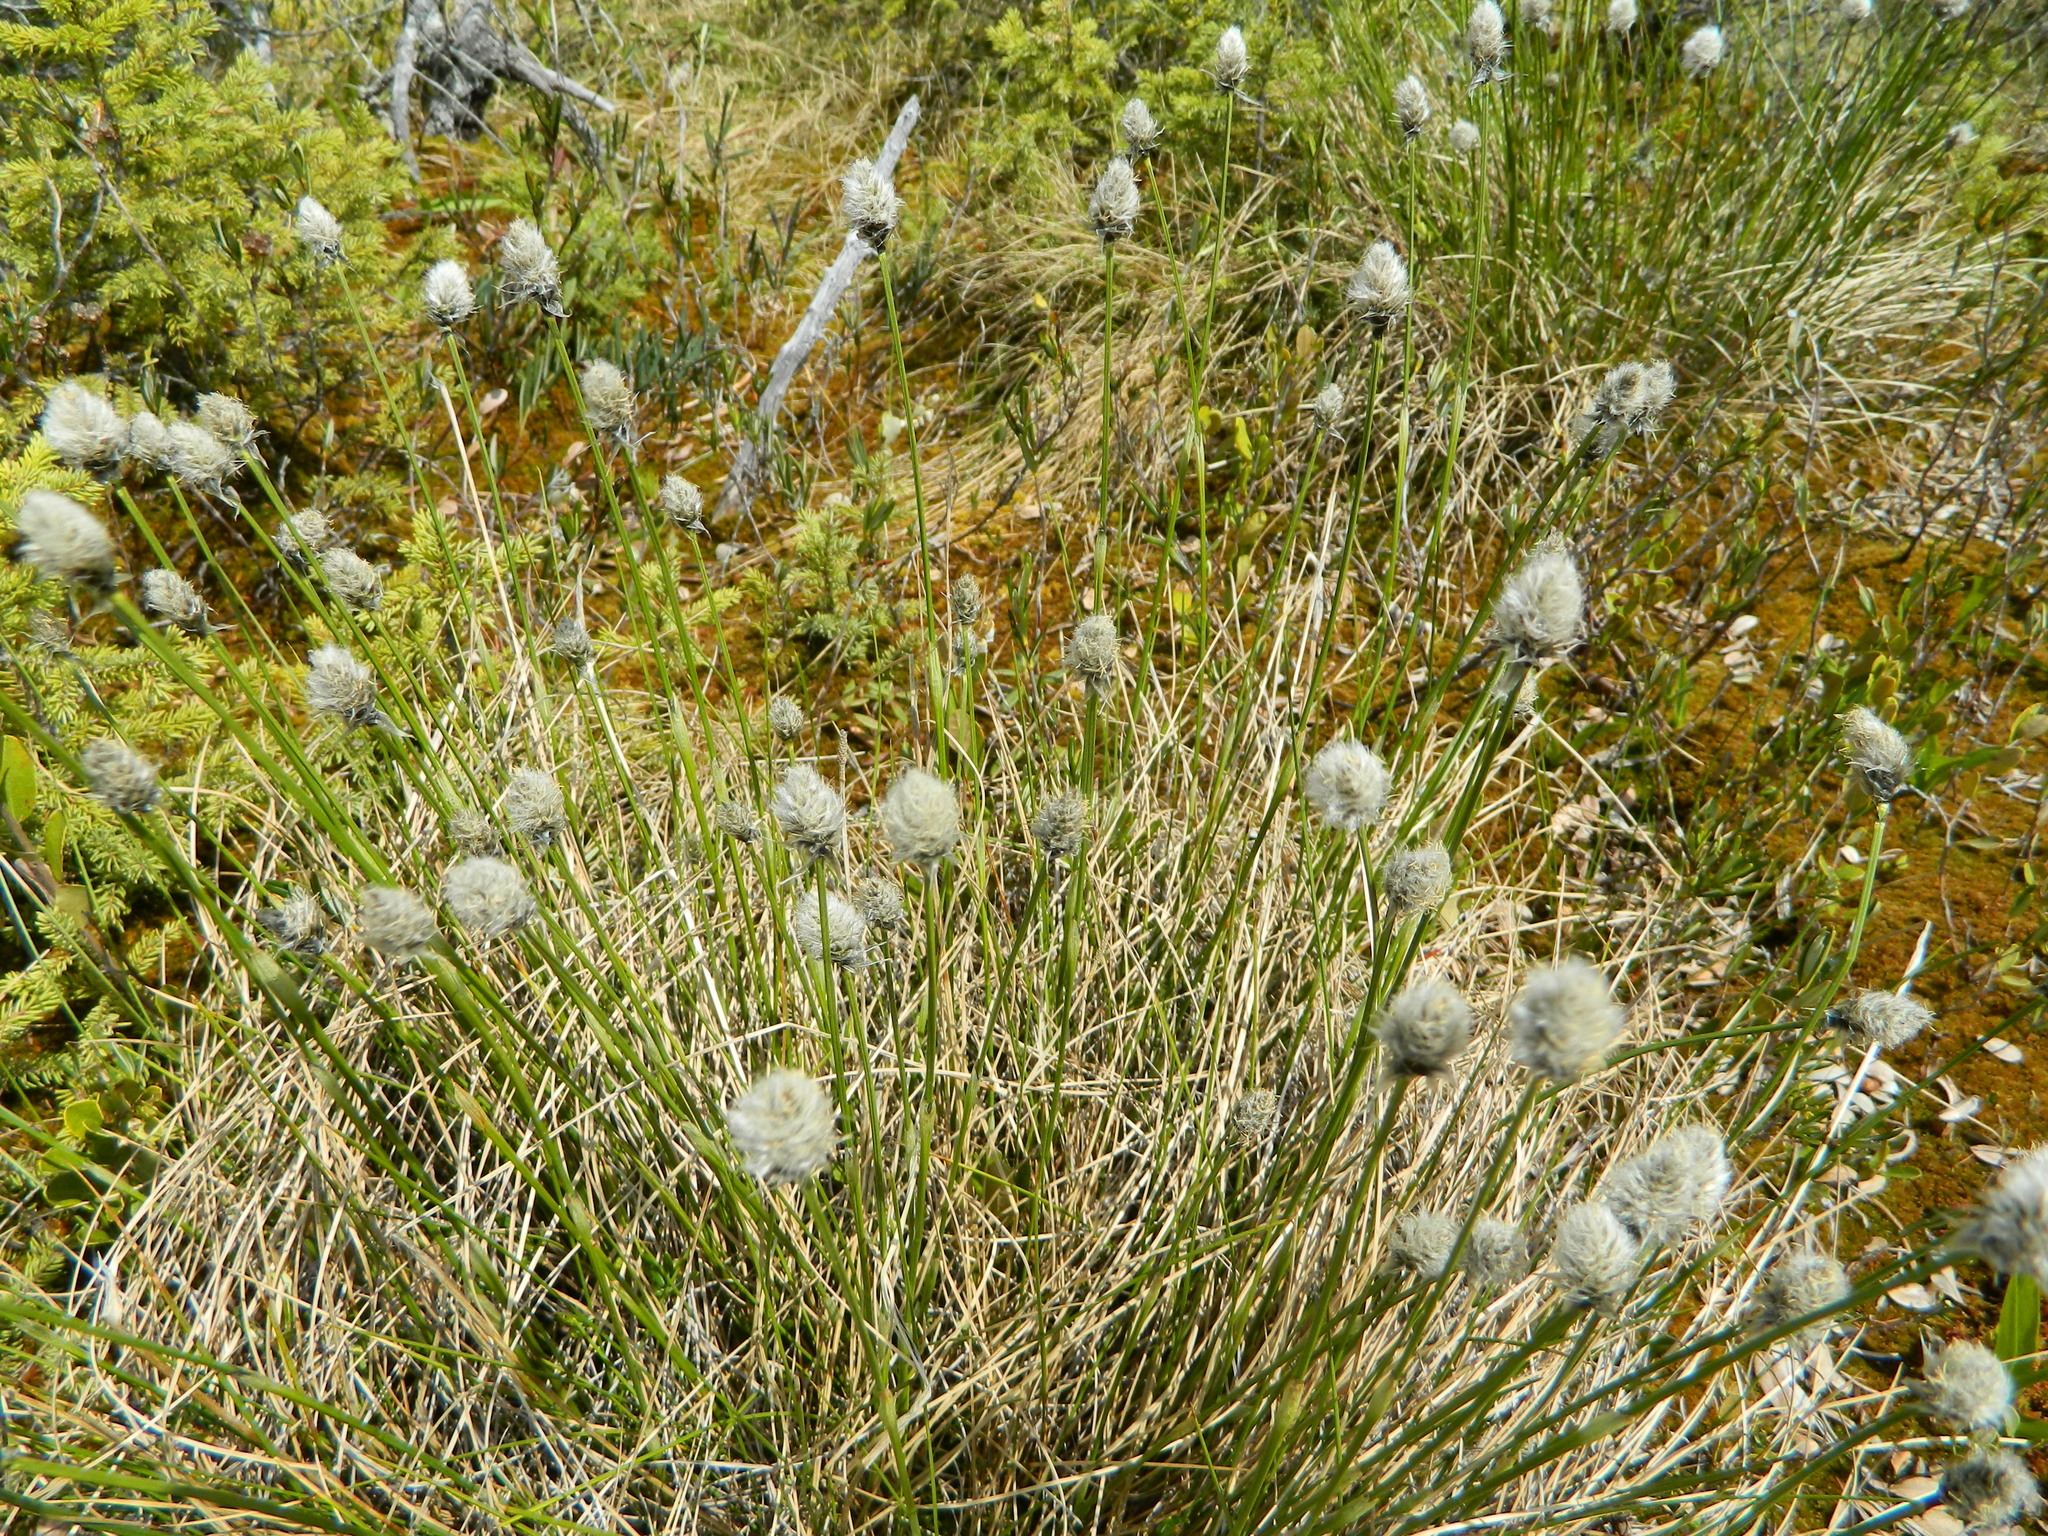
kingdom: Plantae
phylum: Tracheophyta
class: Liliopsida
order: Poales
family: Cyperaceae
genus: Eriophorum
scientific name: Eriophorum vaginatum
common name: Hare's-tail cottongrass
